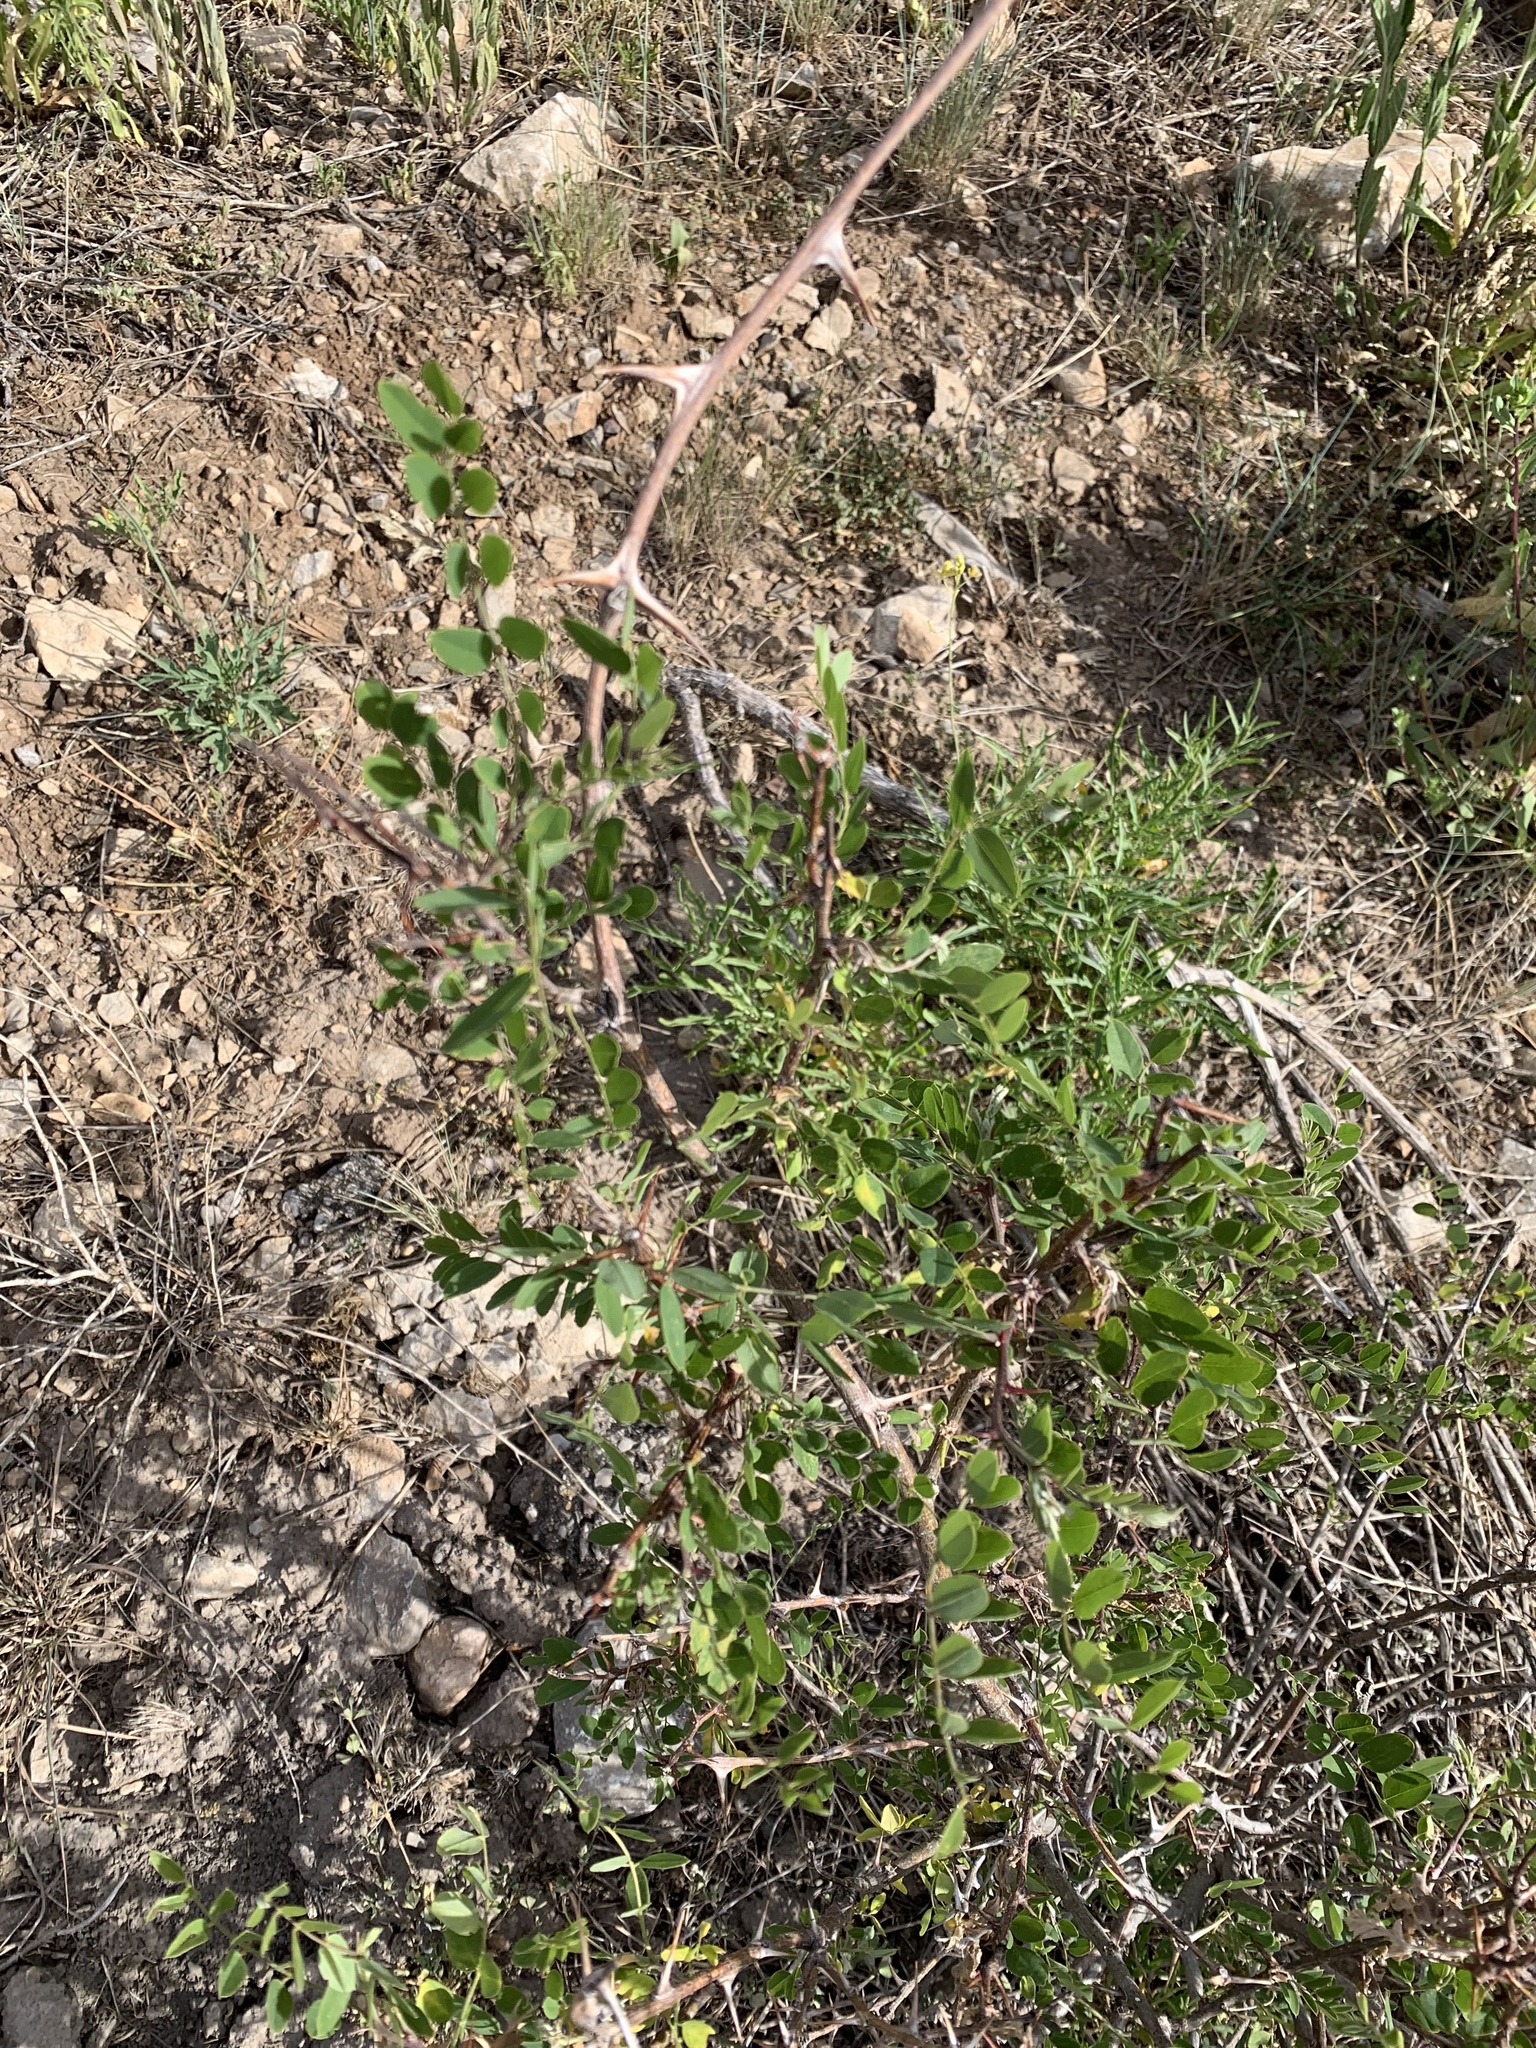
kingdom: Plantae
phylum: Tracheophyta
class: Magnoliopsida
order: Fabales
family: Fabaceae
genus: Robinia
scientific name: Robinia neomexicana
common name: New mexico locust
